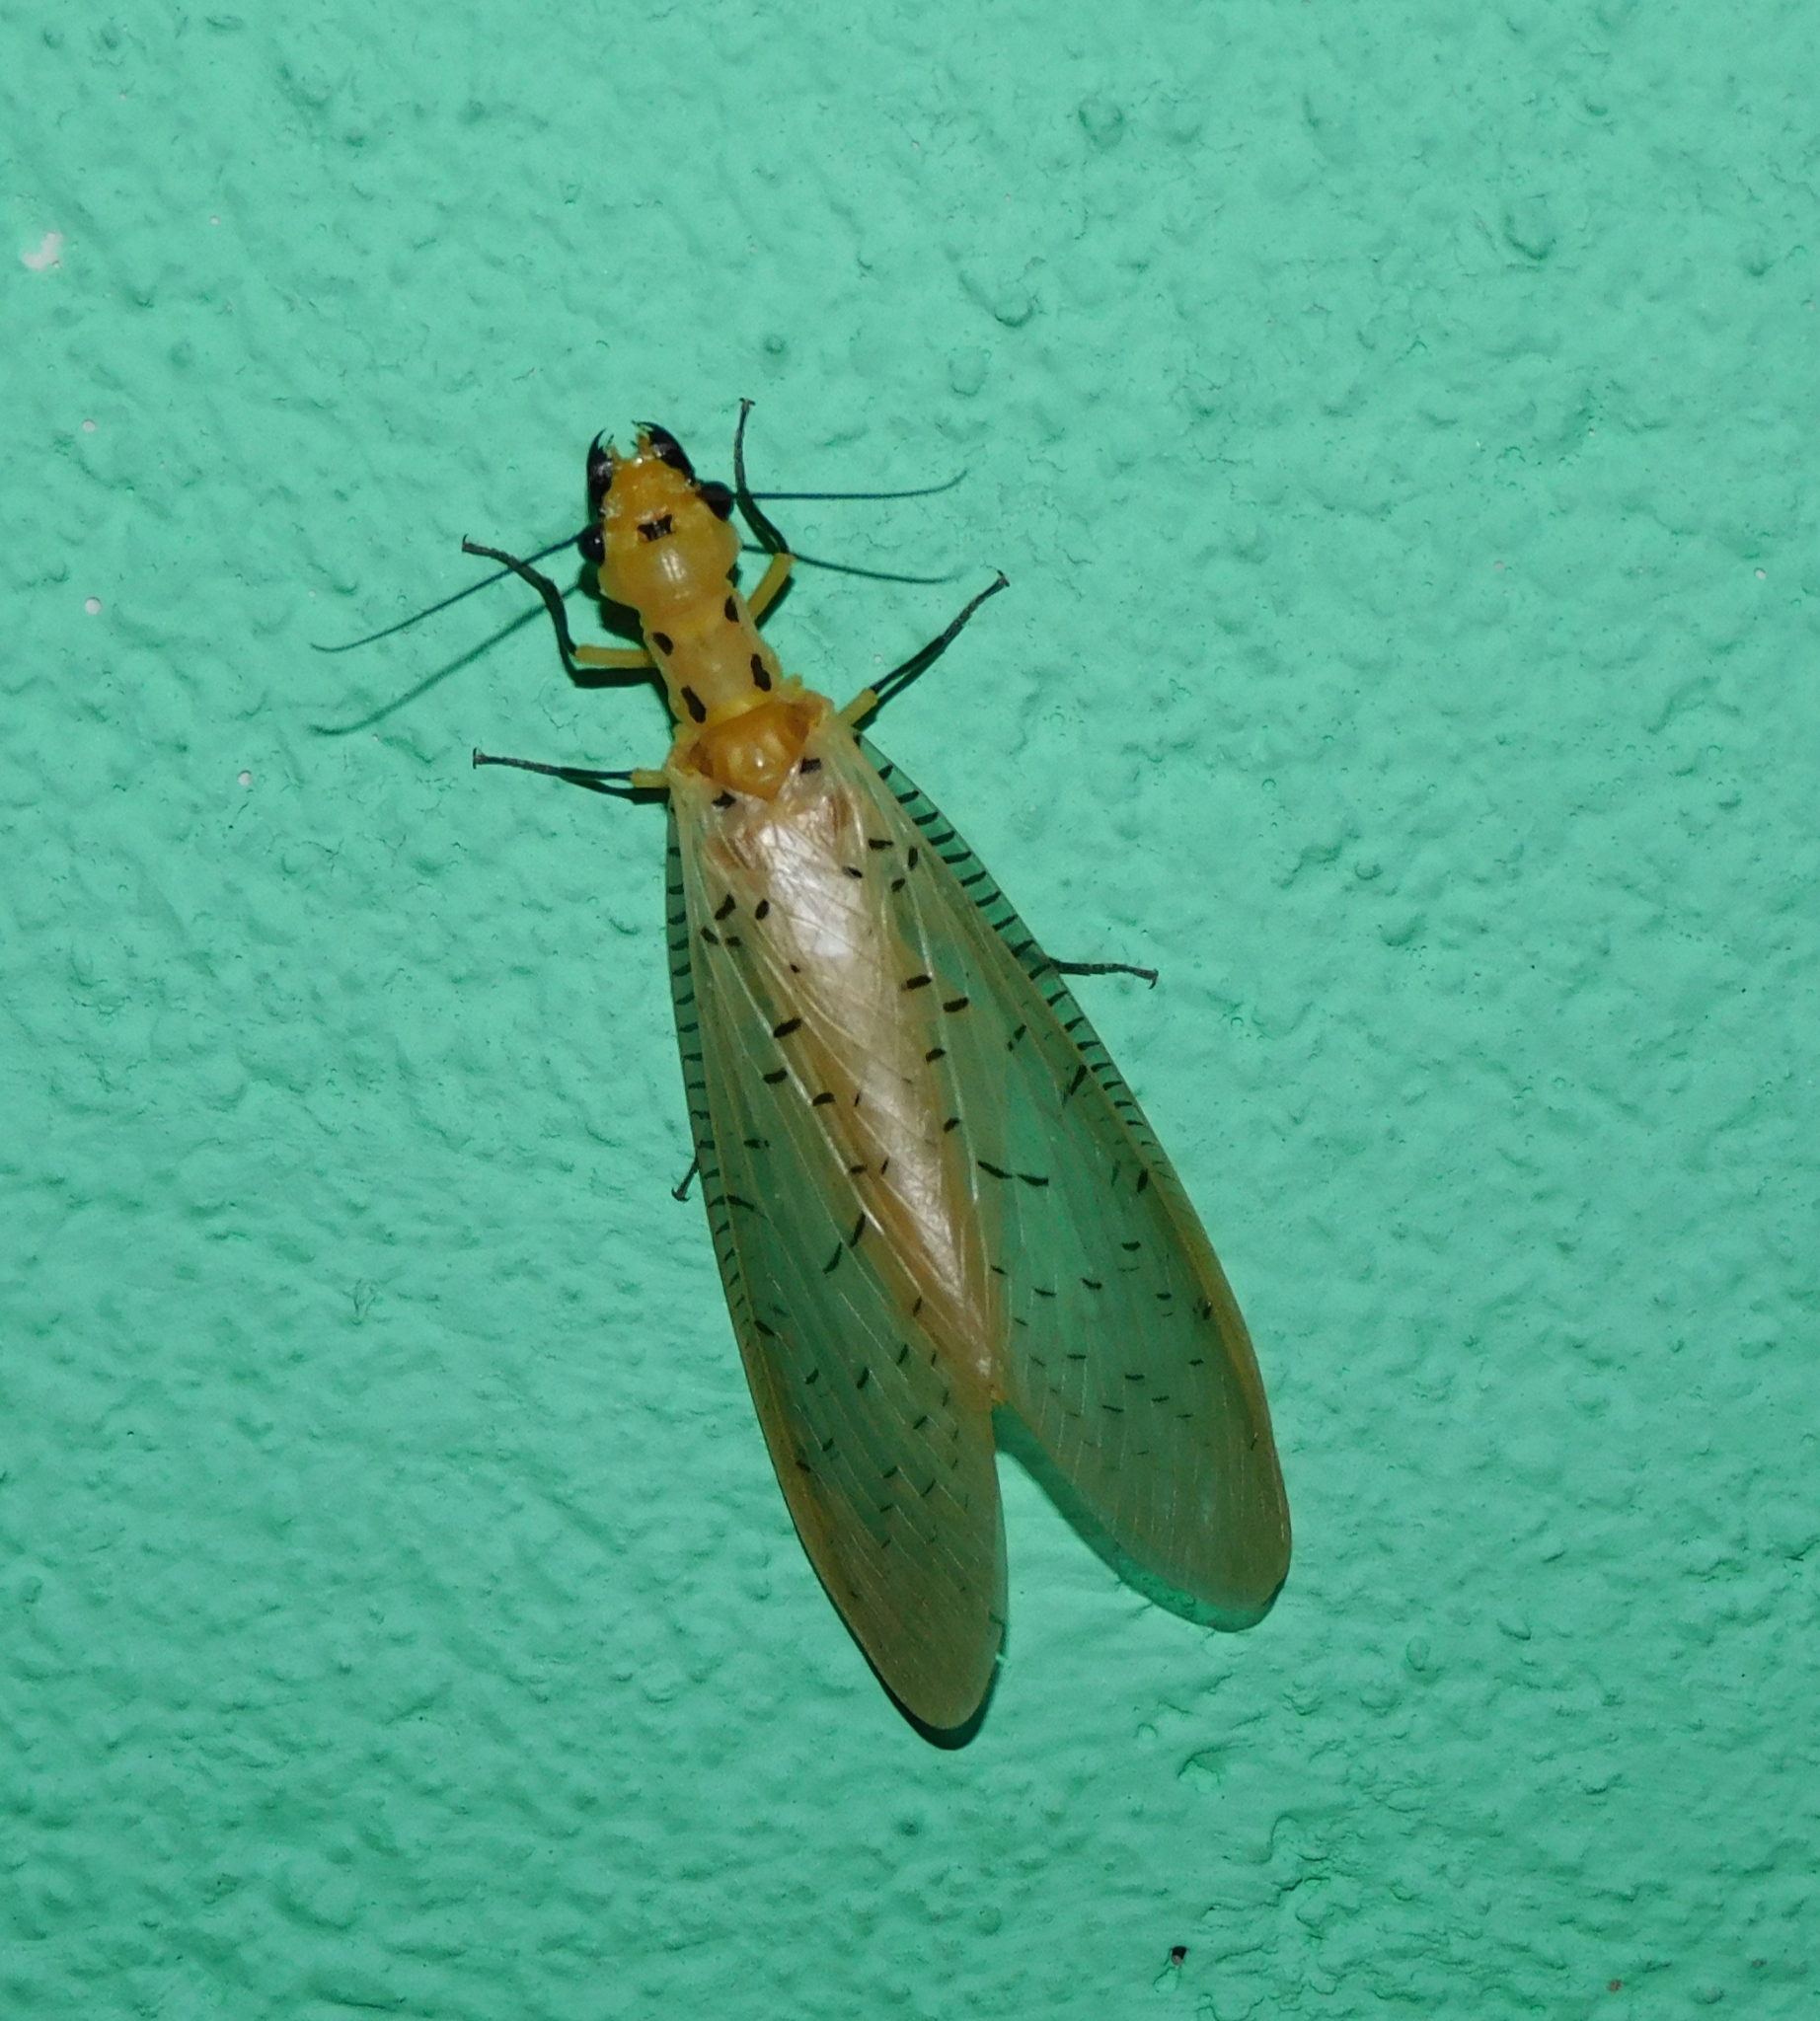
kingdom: Animalia
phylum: Arthropoda
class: Insecta
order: Megaloptera
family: Corydalidae
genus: Nevromus
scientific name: Nevromus intimus
